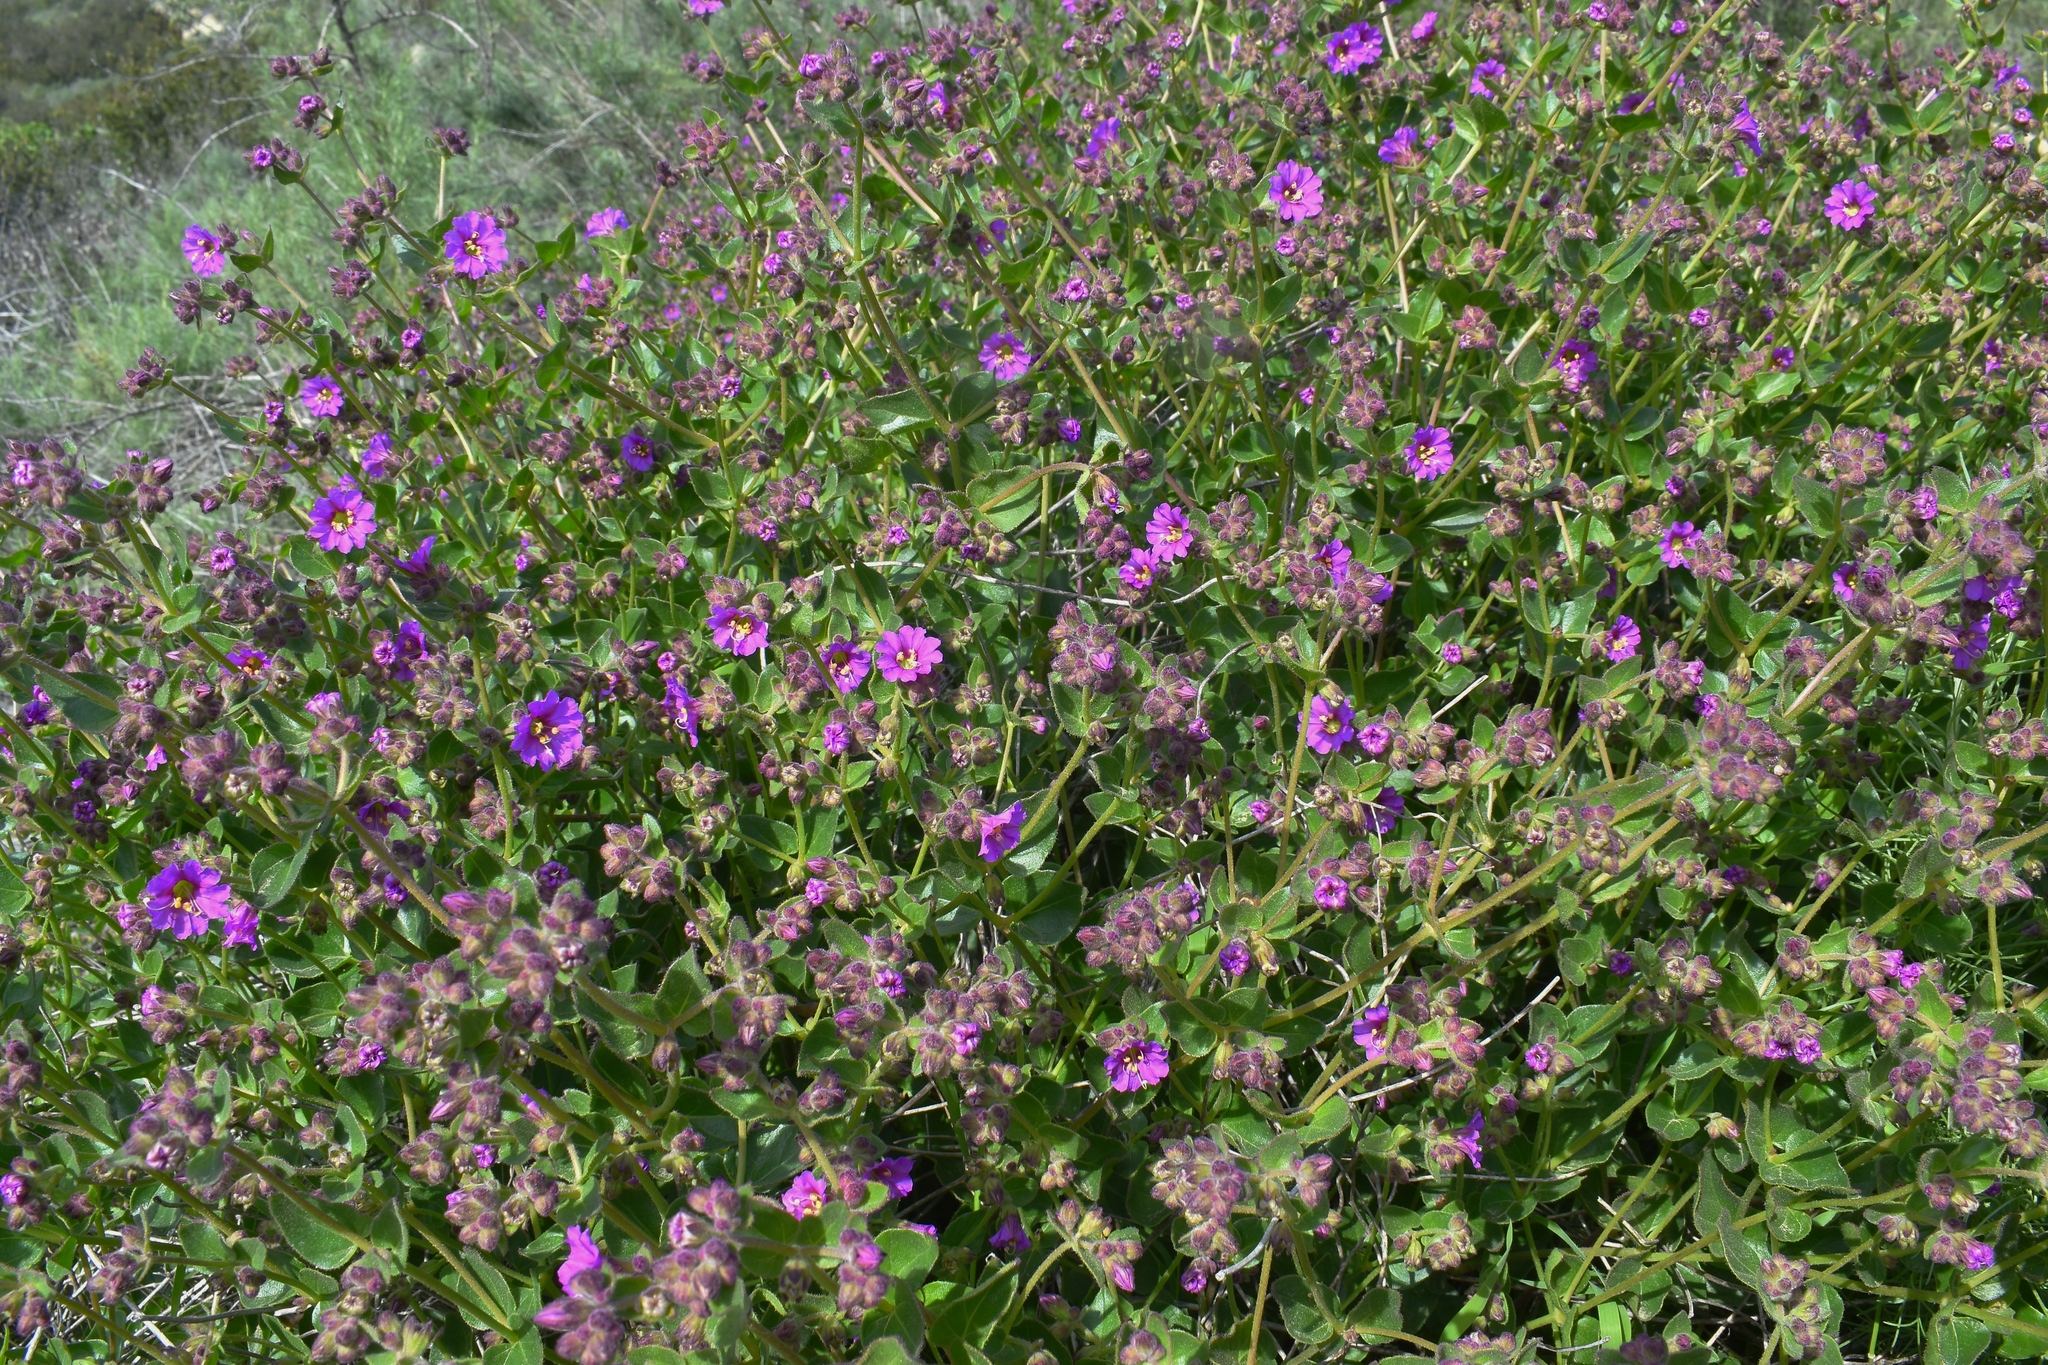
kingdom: Plantae
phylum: Tracheophyta
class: Magnoliopsida
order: Caryophyllales
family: Nyctaginaceae
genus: Mirabilis
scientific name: Mirabilis laevis
